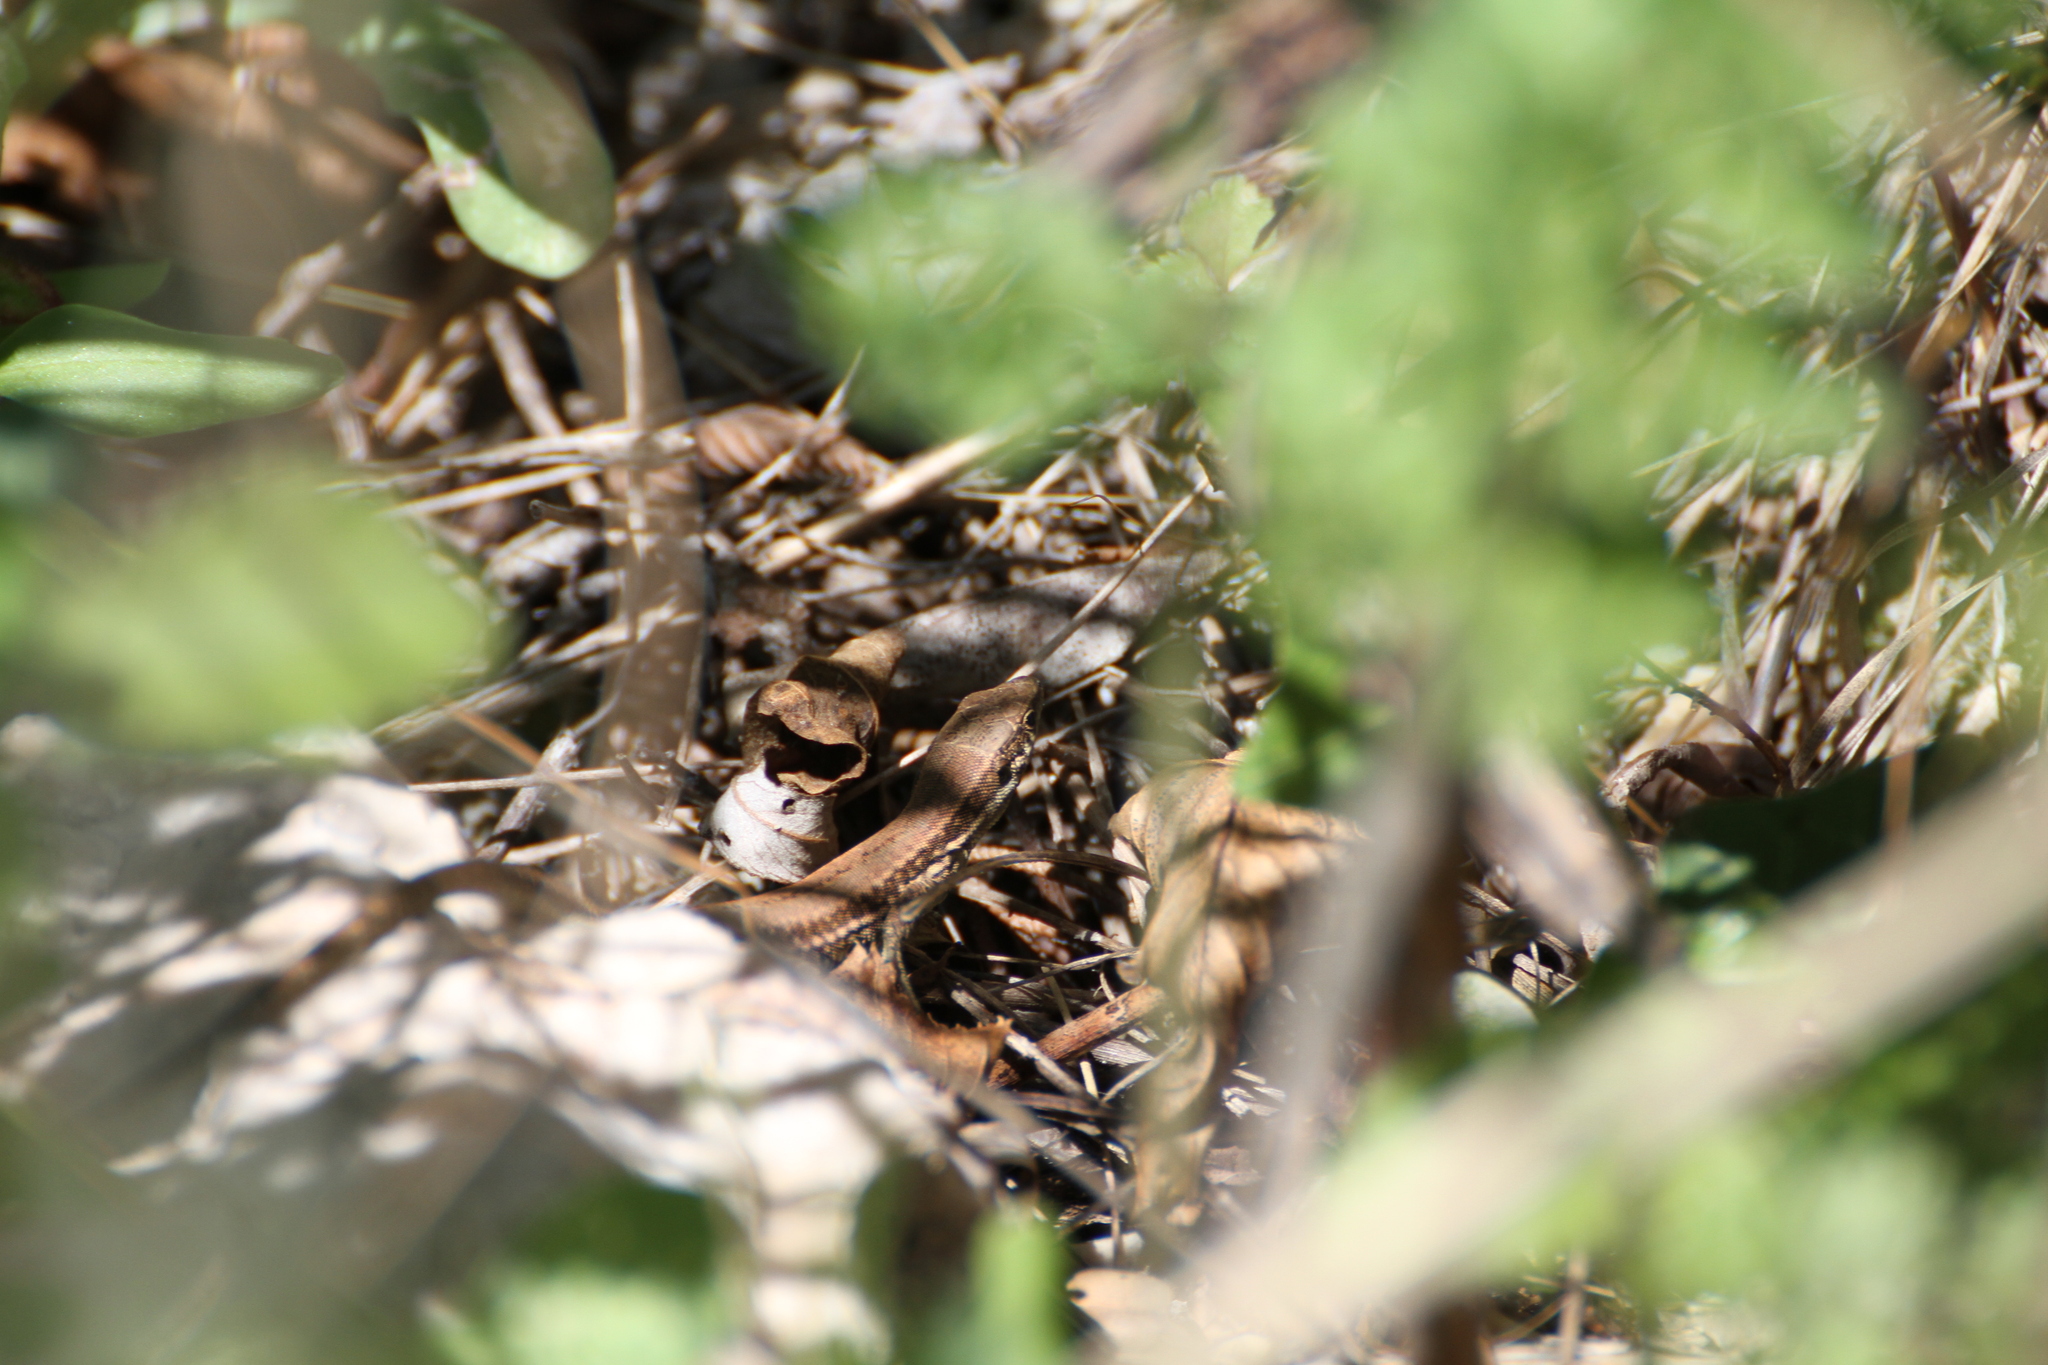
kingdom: Animalia
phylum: Chordata
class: Squamata
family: Lacertidae
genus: Podarcis
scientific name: Podarcis muralis
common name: Common wall lizard
